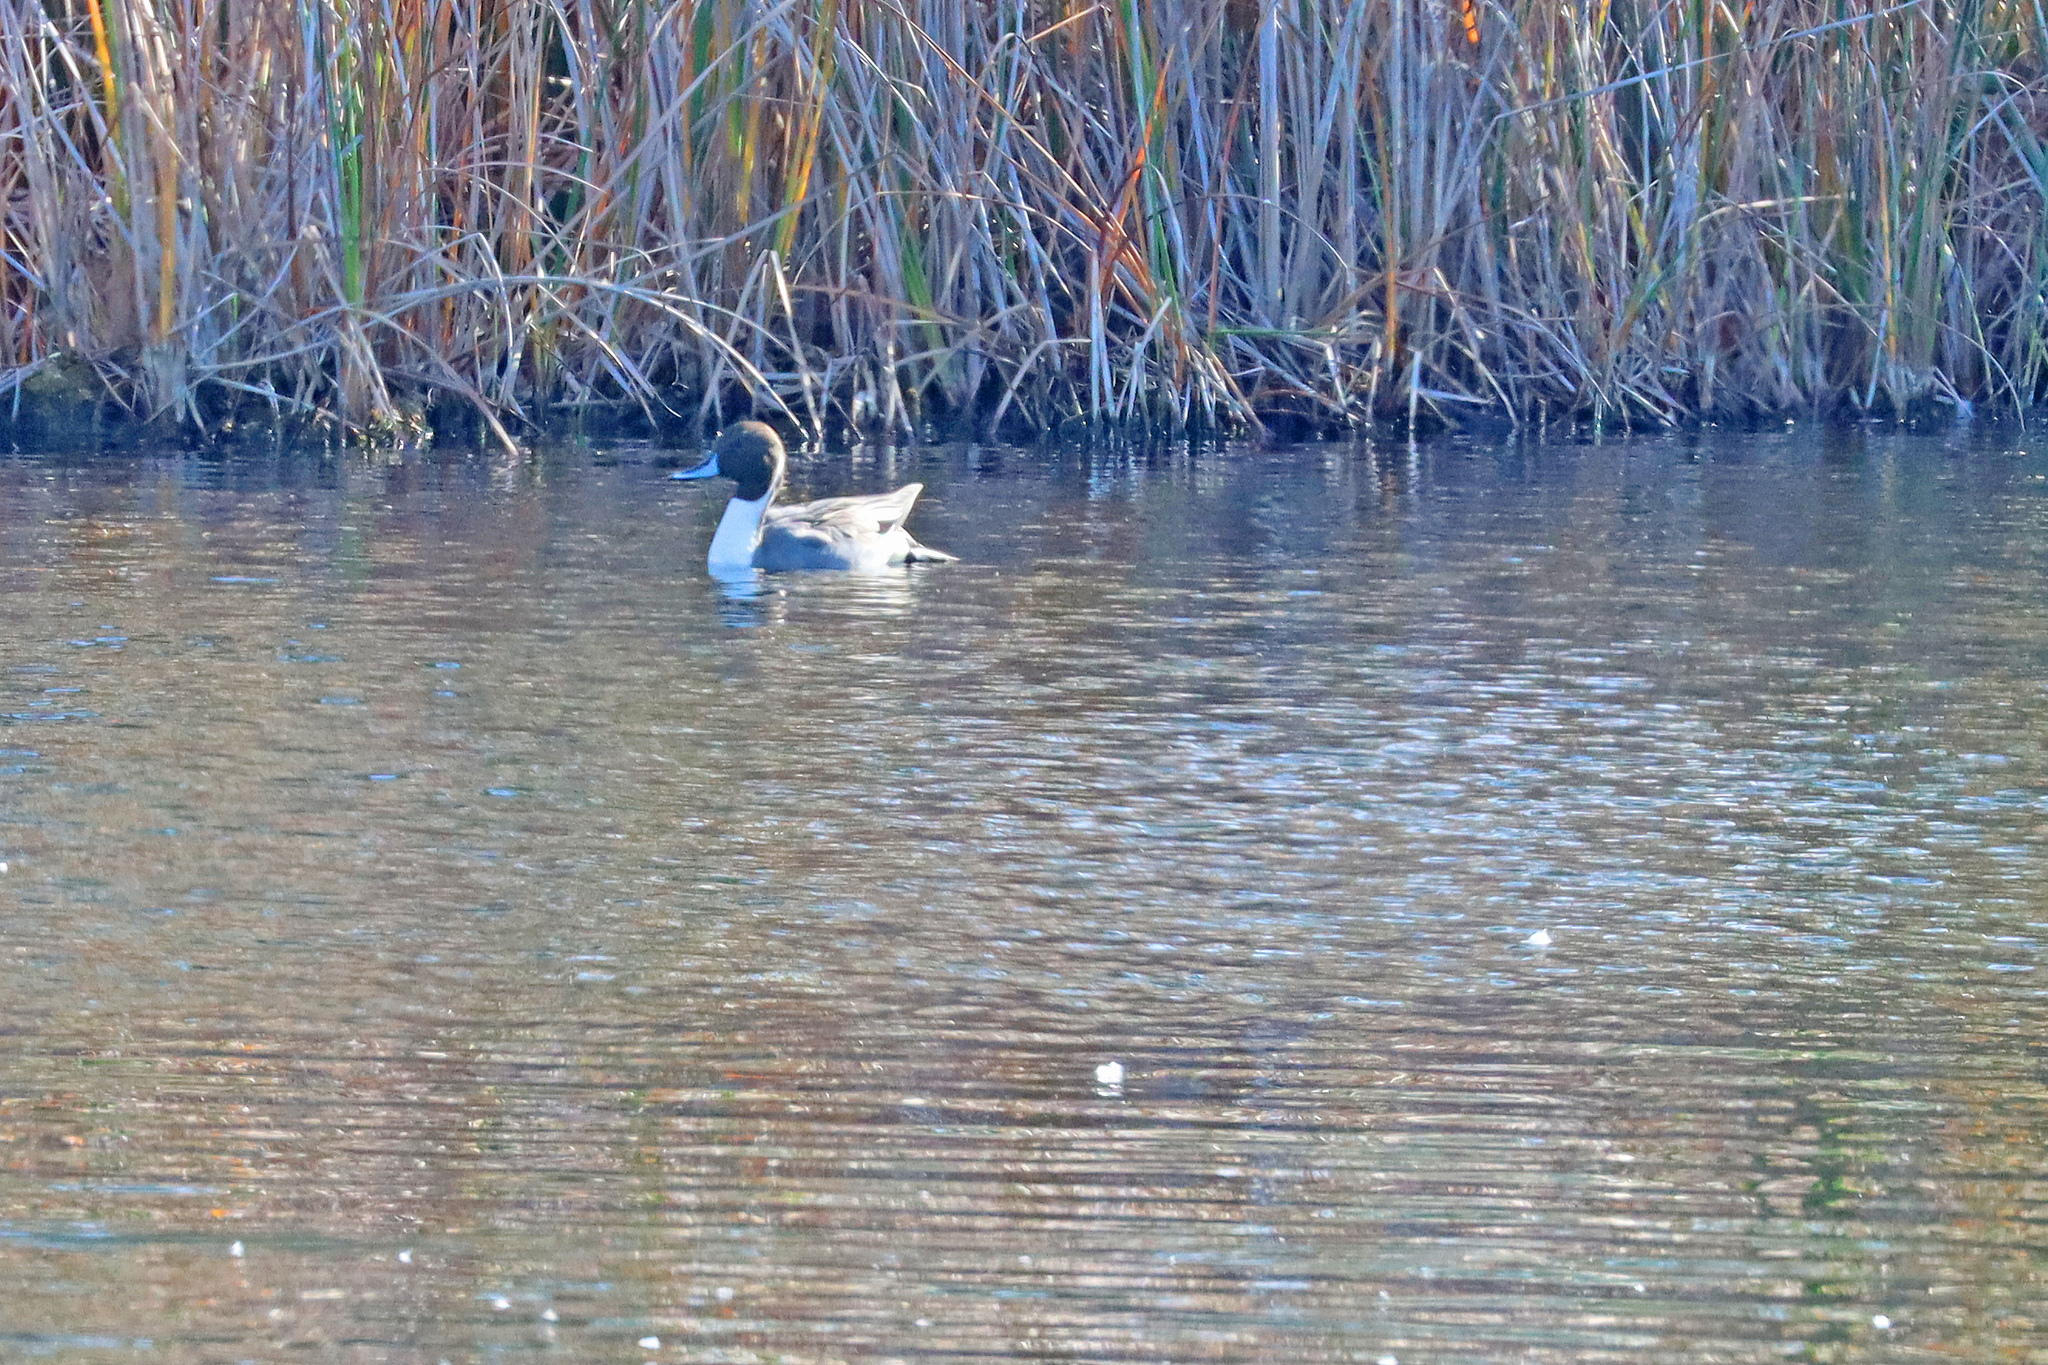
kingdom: Animalia
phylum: Chordata
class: Aves
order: Anseriformes
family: Anatidae
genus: Anas
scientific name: Anas acuta
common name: Northern pintail
